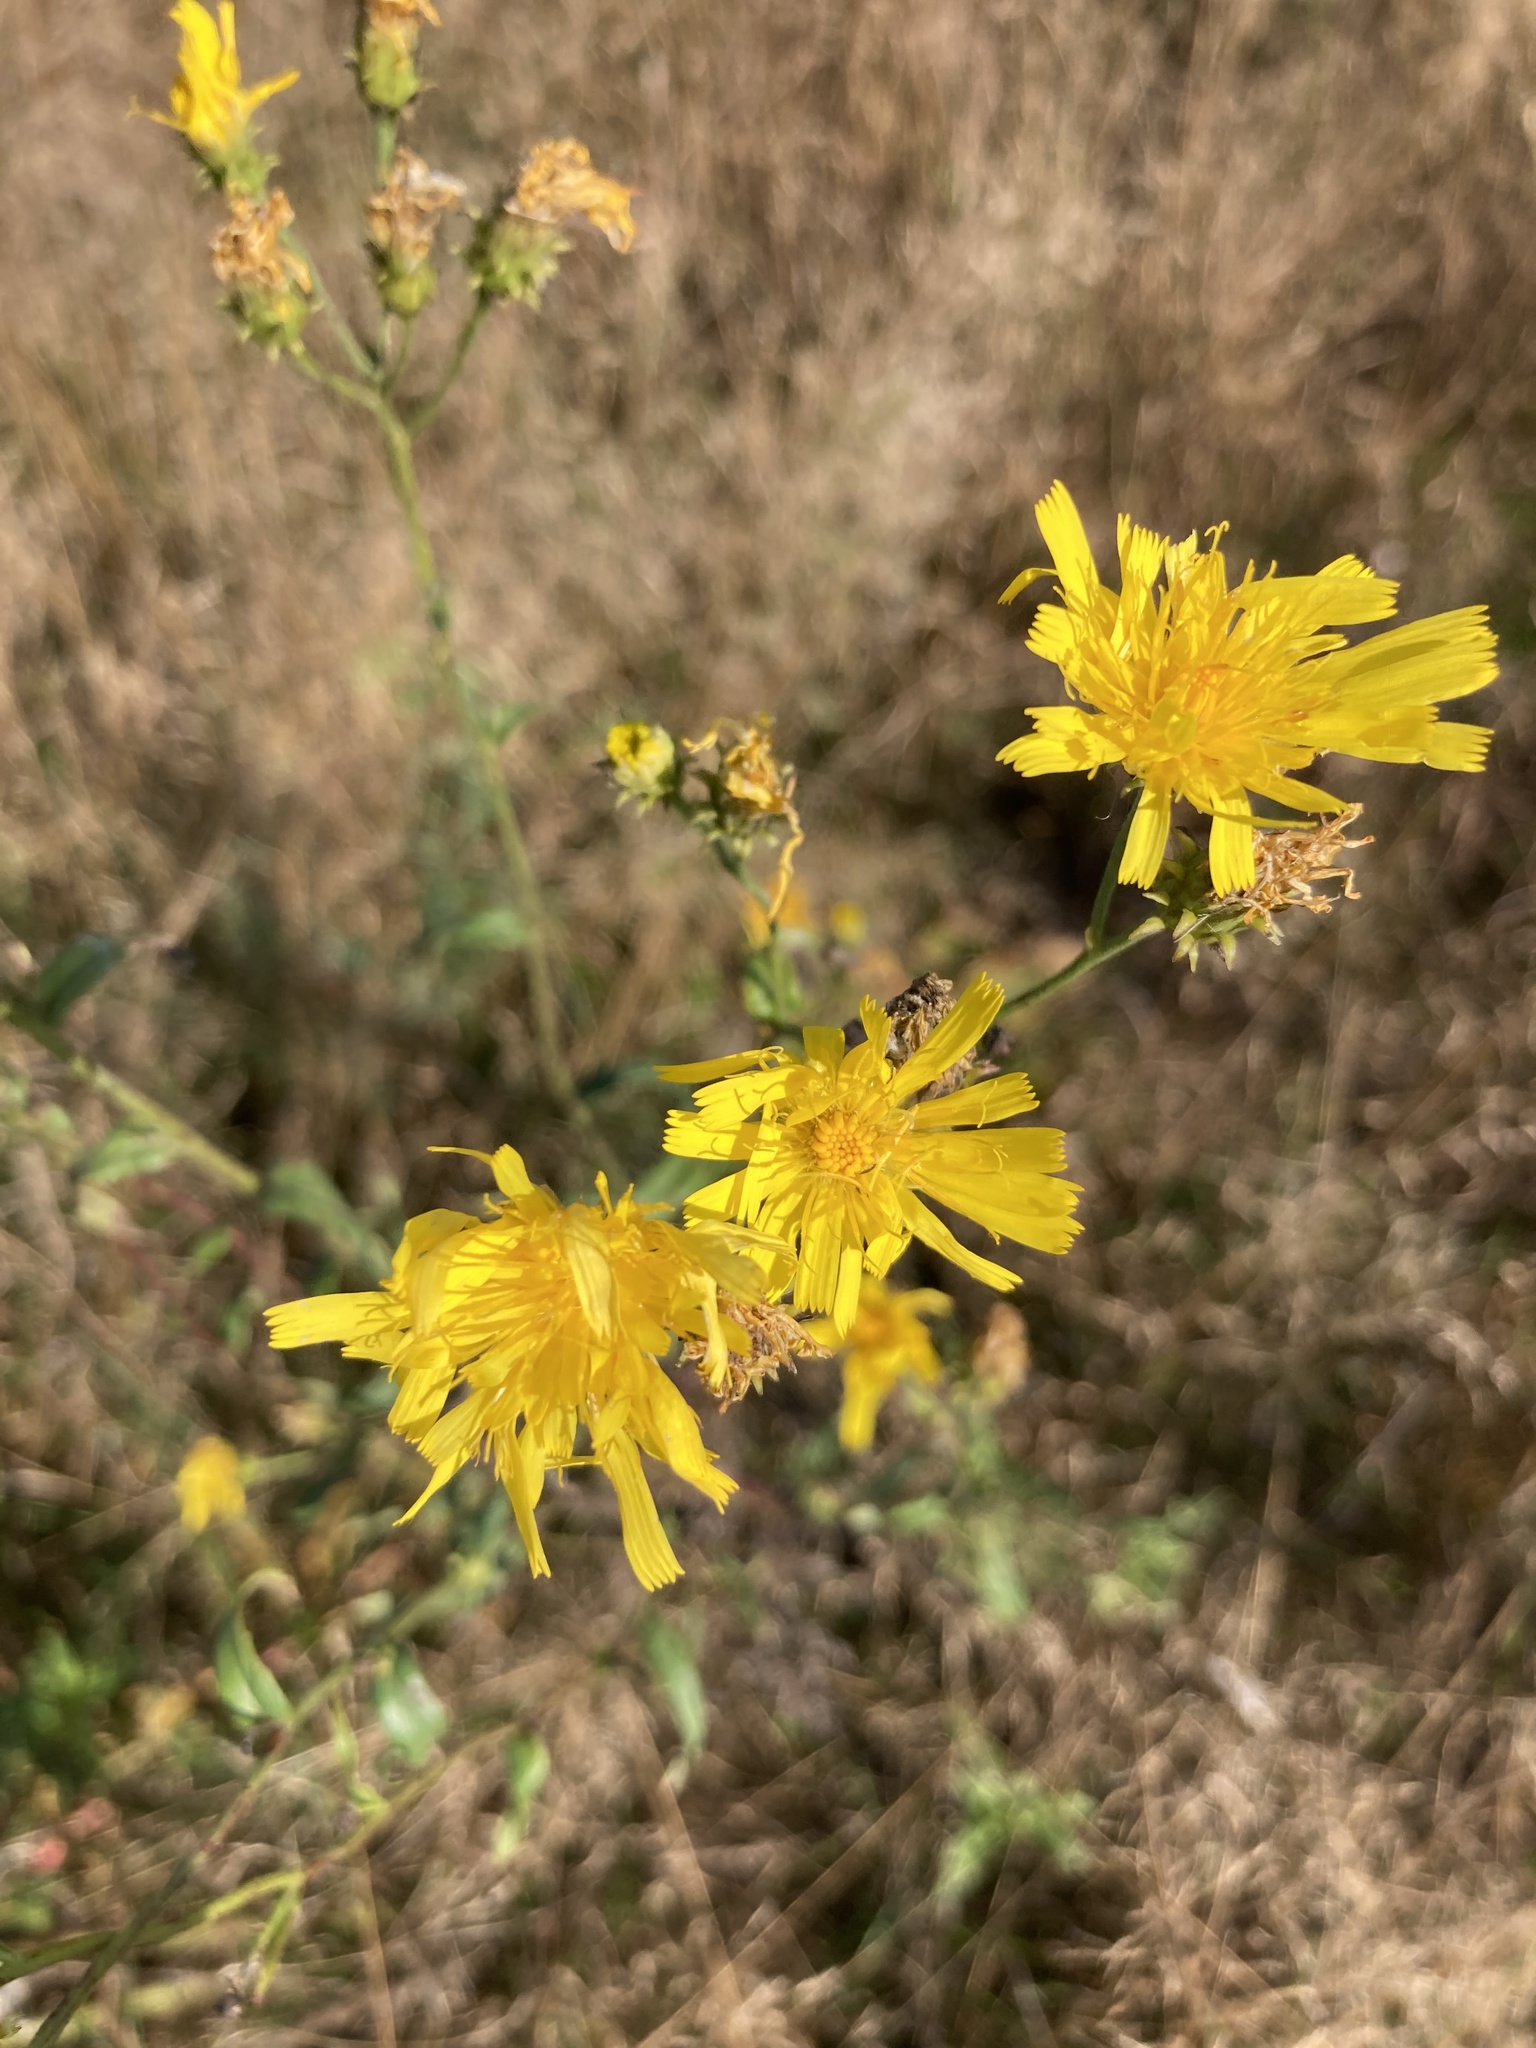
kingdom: Plantae
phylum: Tracheophyta
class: Magnoliopsida
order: Asterales
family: Asteraceae
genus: Hieracium
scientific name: Hieracium umbellatum
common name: Northern hawkweed
